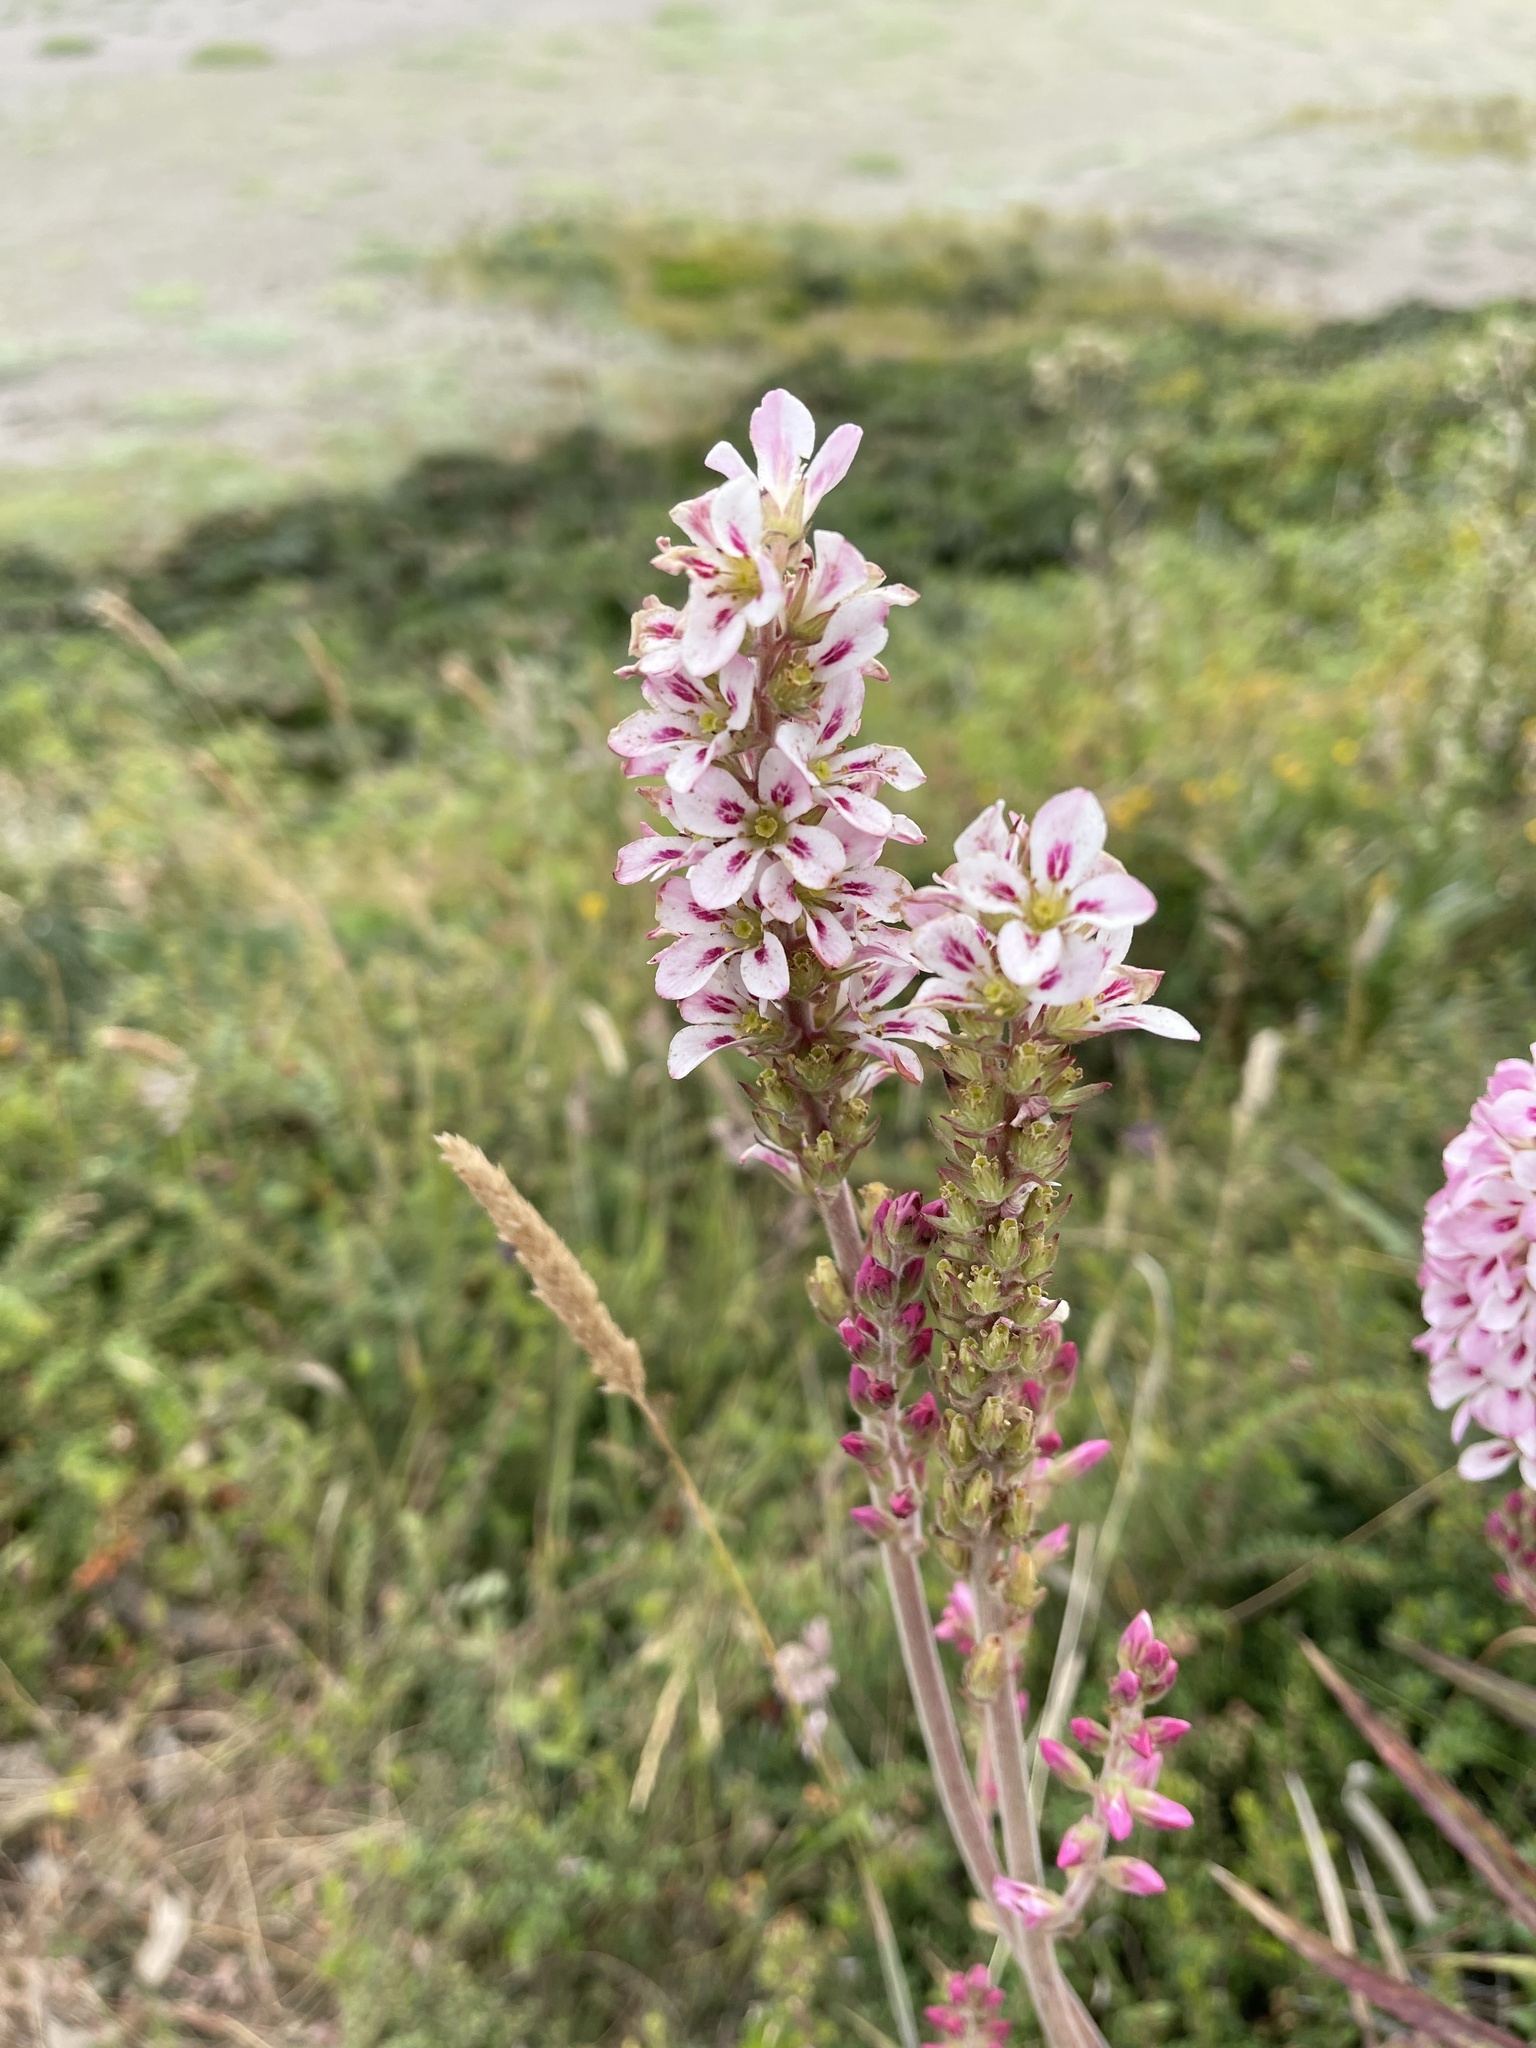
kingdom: Plantae
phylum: Tracheophyta
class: Magnoliopsida
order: Geraniales
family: Francoaceae
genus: Francoa
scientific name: Francoa appendiculata
